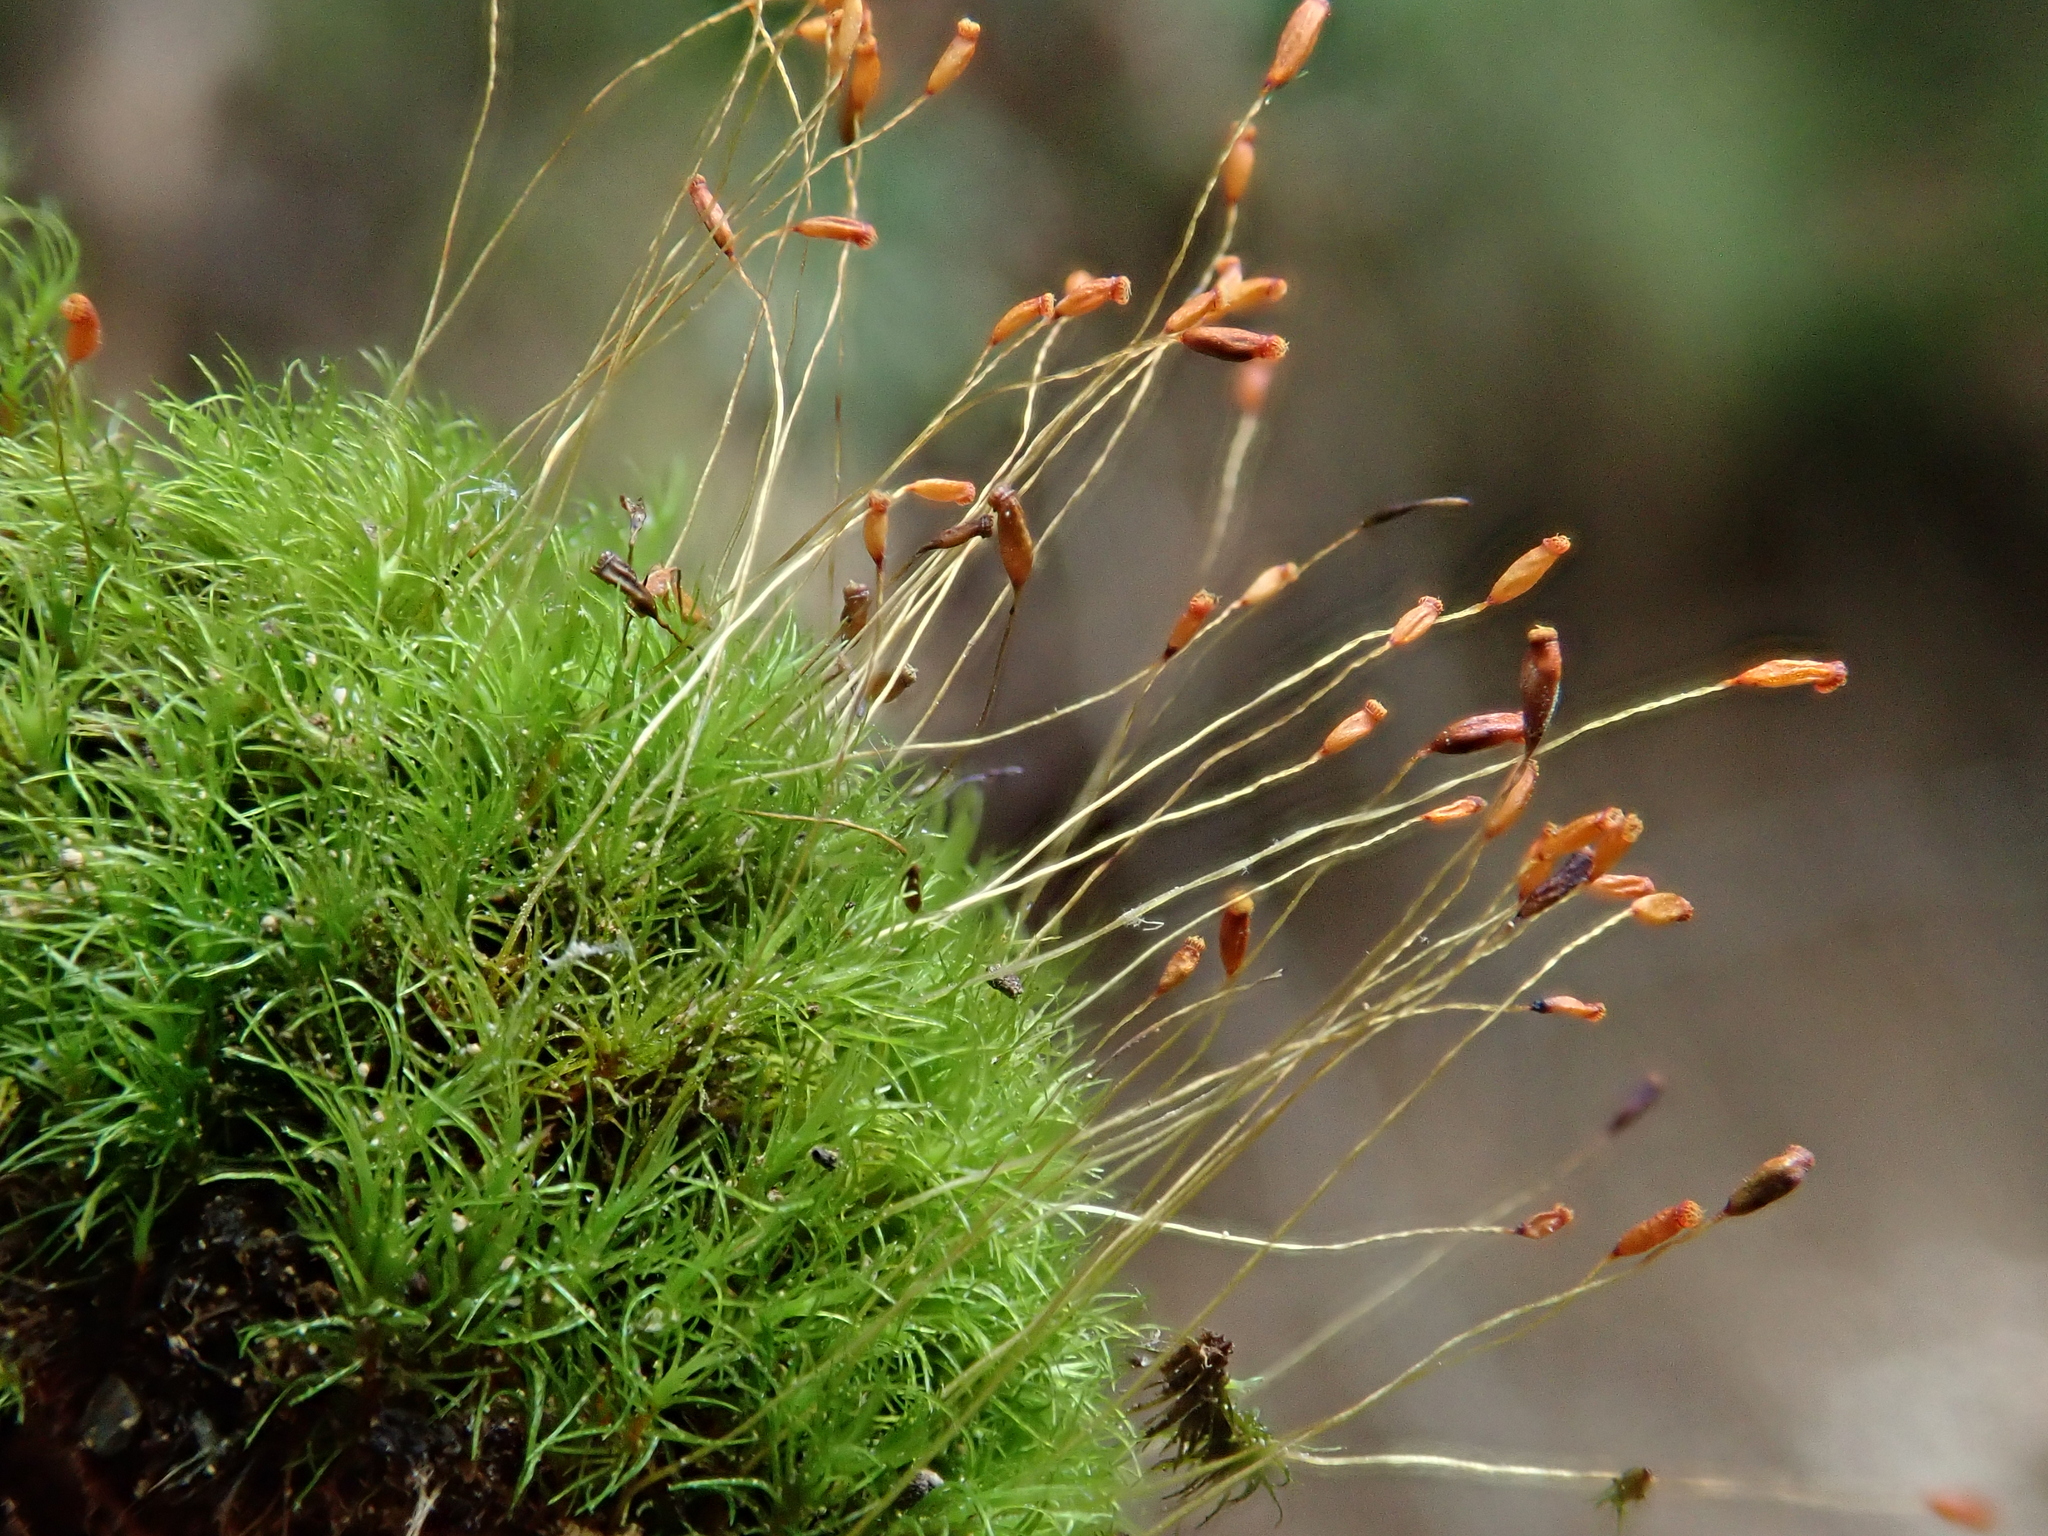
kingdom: Plantae
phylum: Bryophyta
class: Bryopsida
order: Dicranales
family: Dicranellaceae
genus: Dicranella
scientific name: Dicranella heteromalla
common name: Silky forklet moss
